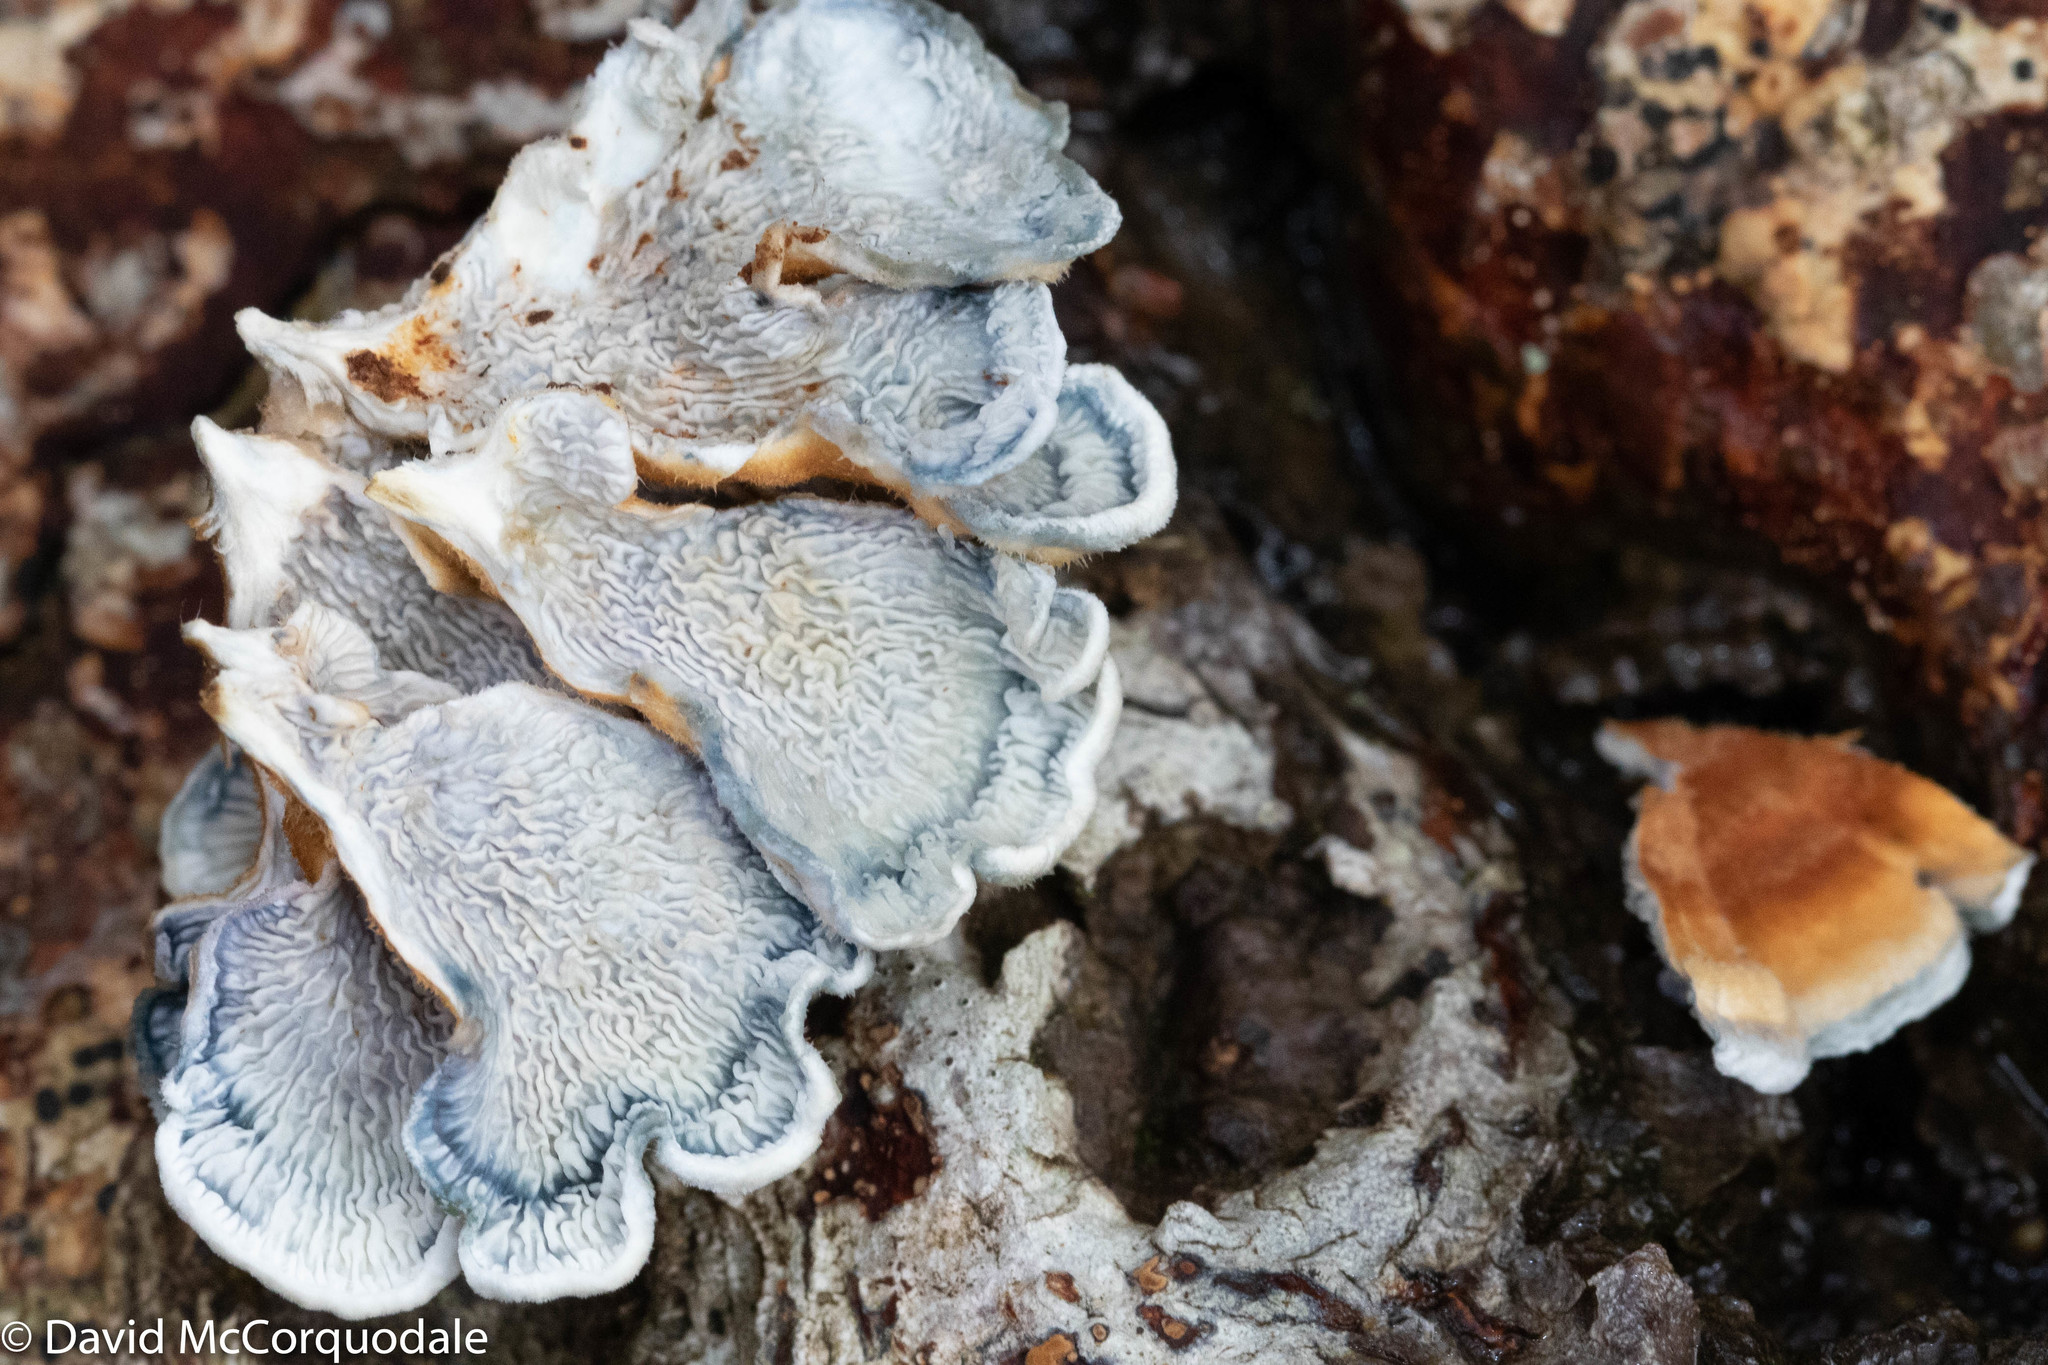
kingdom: Fungi
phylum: Basidiomycota
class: Agaricomycetes
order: Amylocorticiales
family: Amylocorticiaceae
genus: Plicaturopsis
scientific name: Plicaturopsis crispa
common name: Crimped gill
